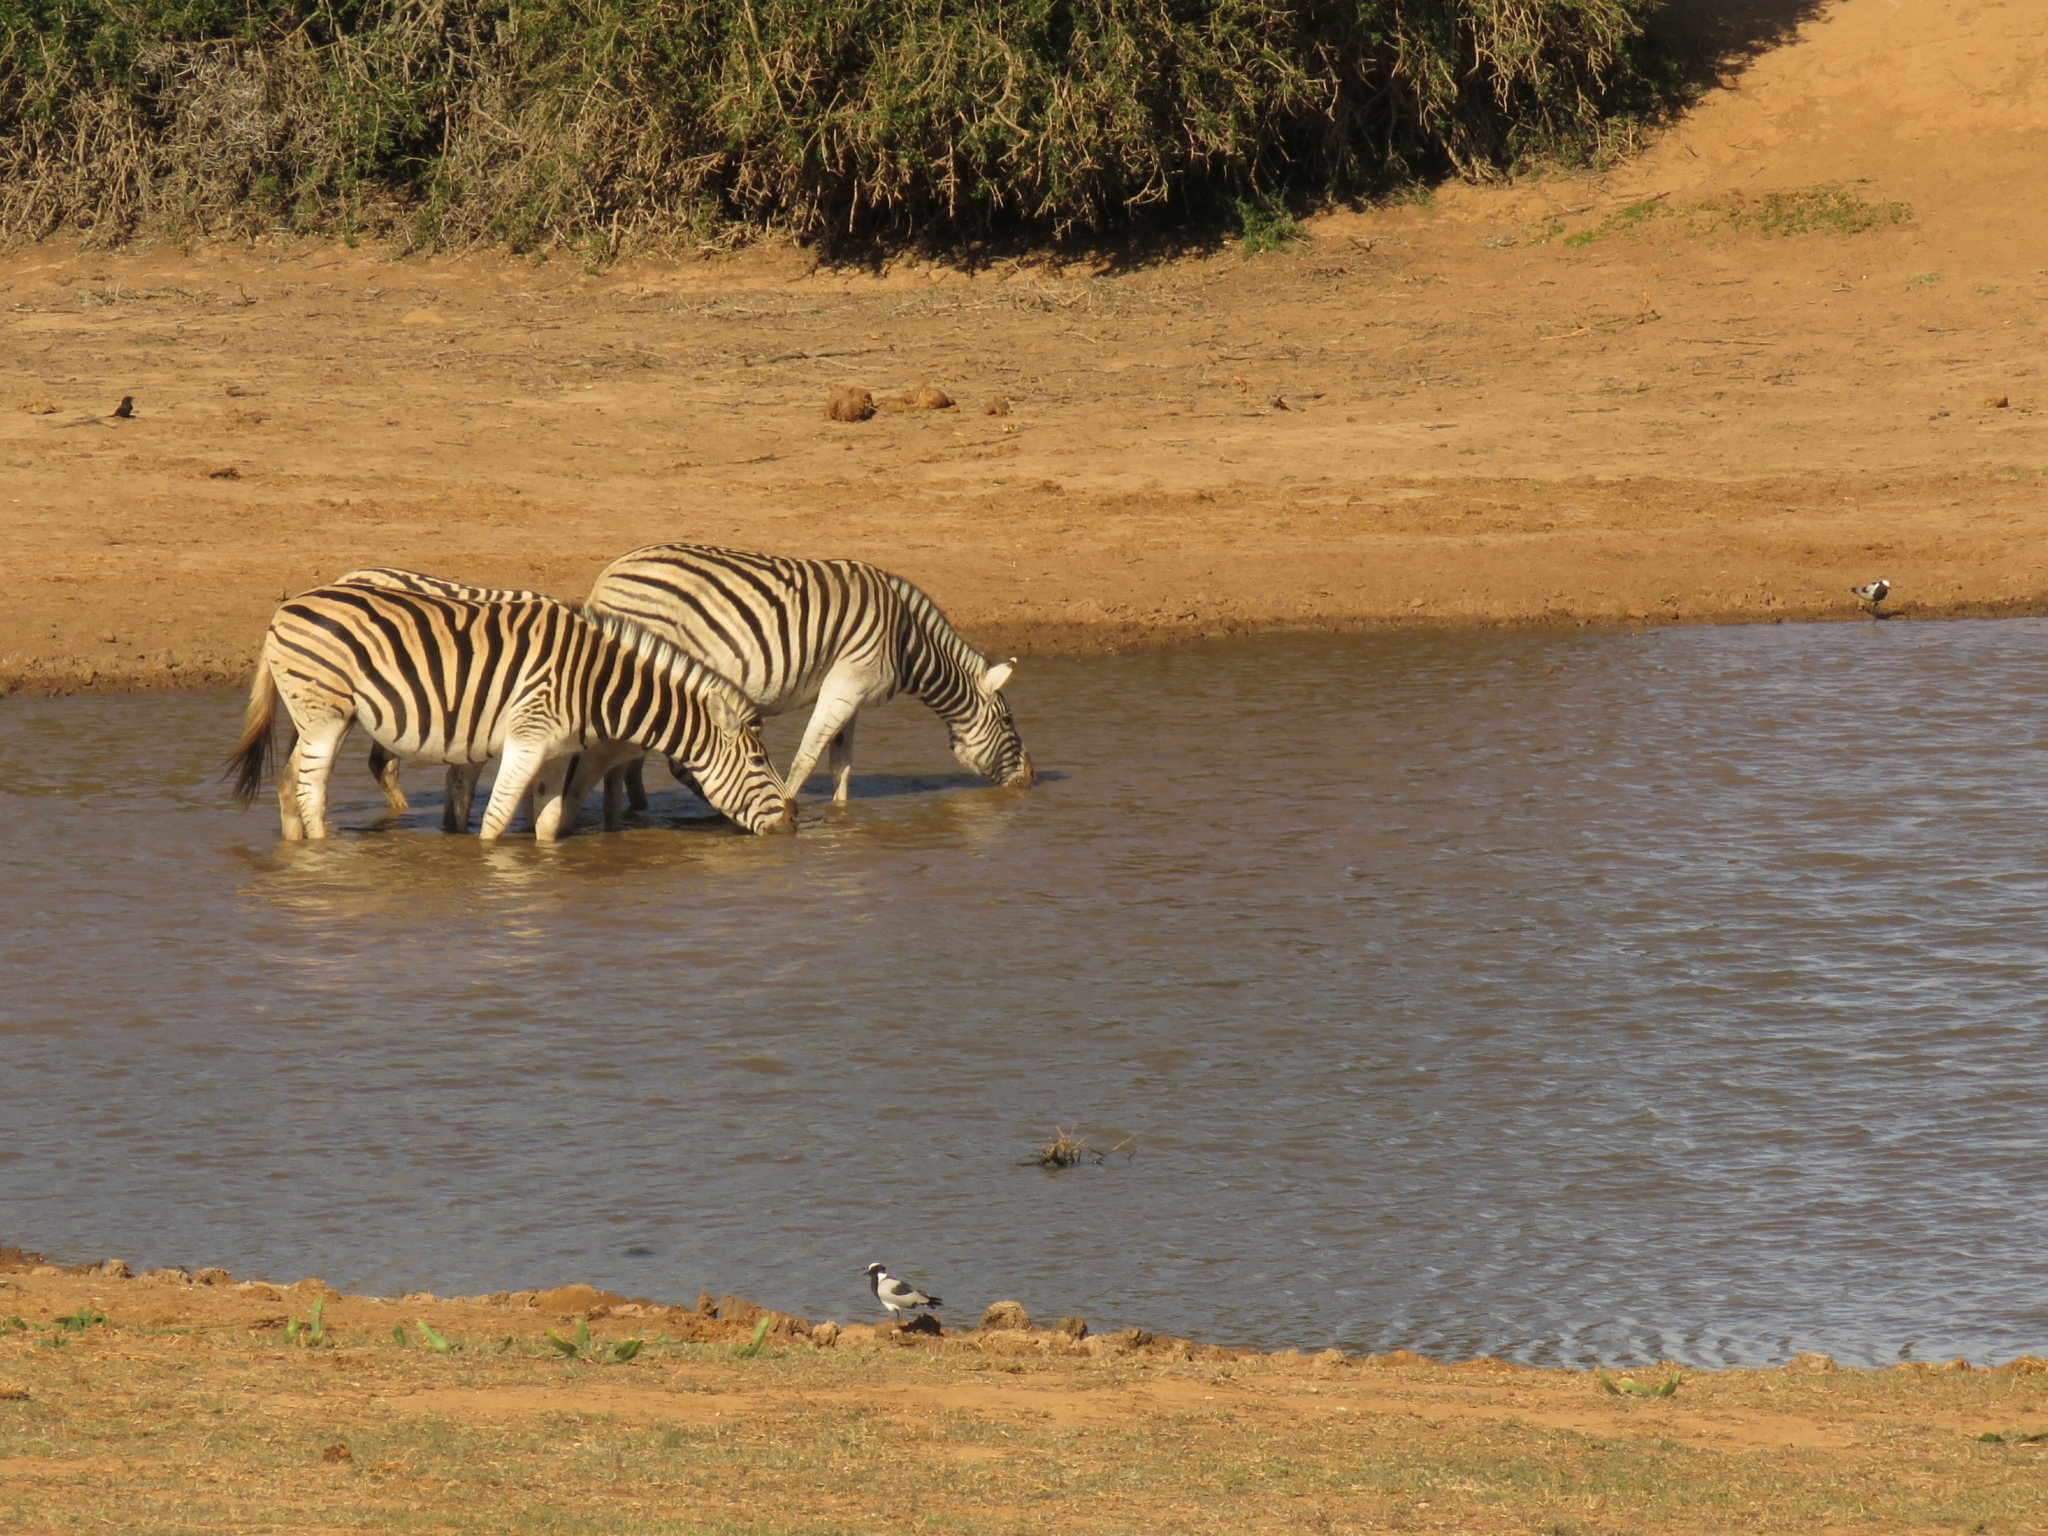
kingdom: Animalia
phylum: Chordata
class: Mammalia
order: Perissodactyla
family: Equidae
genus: Equus
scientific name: Equus quagga
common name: Plains zebra
